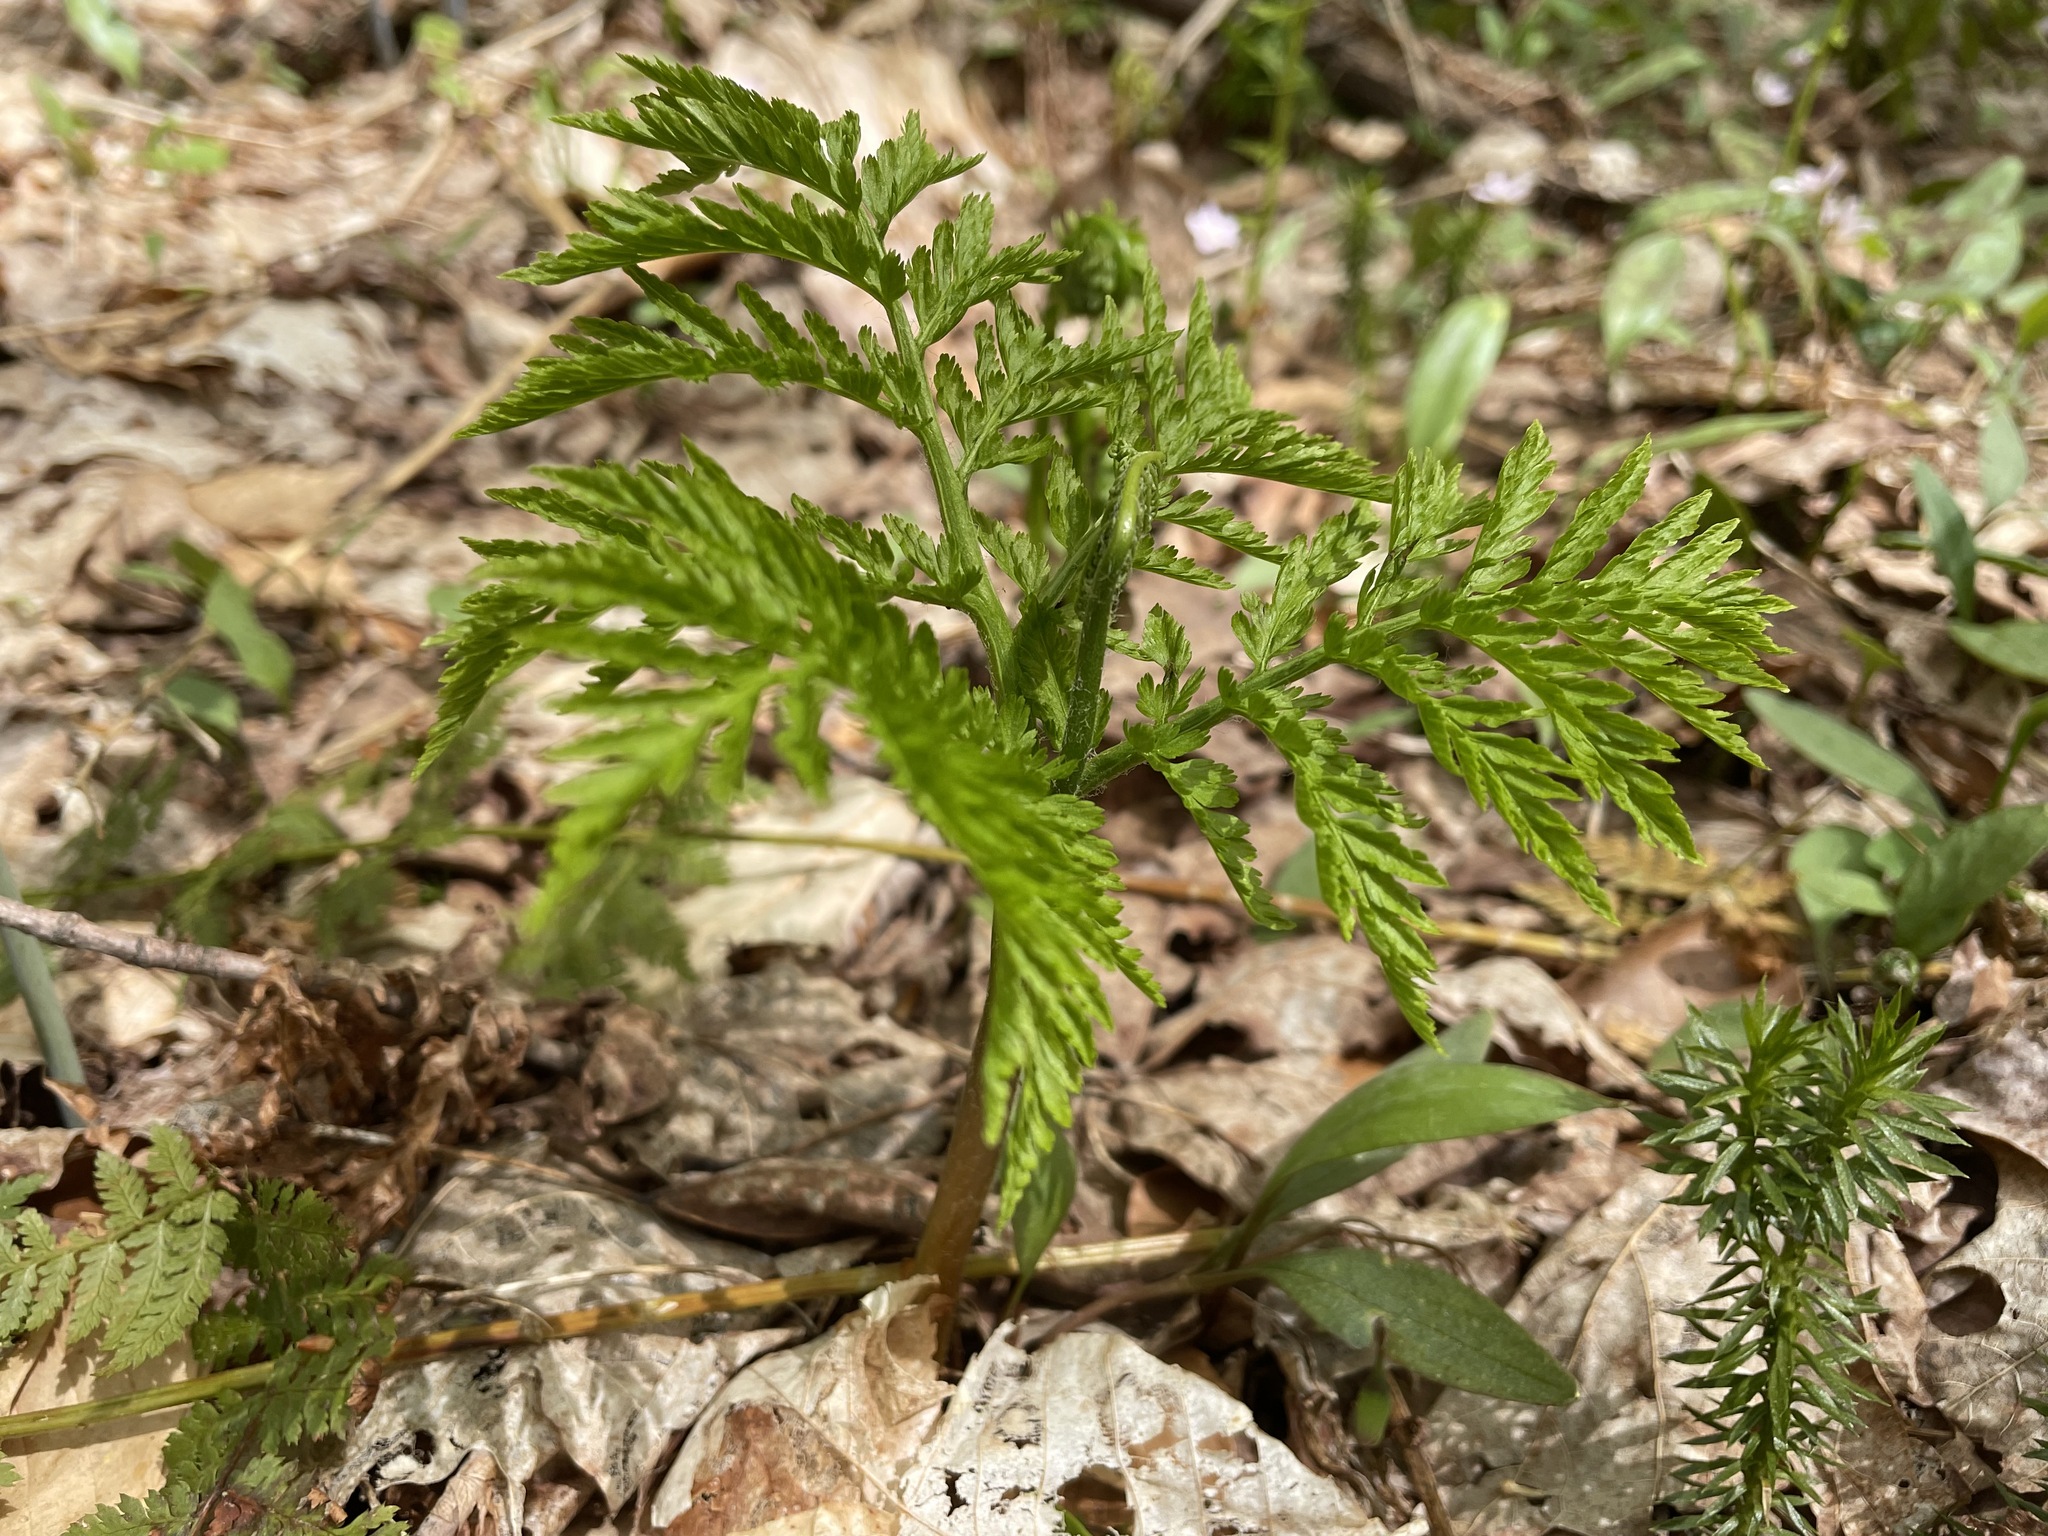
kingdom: Plantae
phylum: Tracheophyta
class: Polypodiopsida
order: Ophioglossales
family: Ophioglossaceae
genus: Botrypus
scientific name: Botrypus virginianus
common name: Common grapefern
